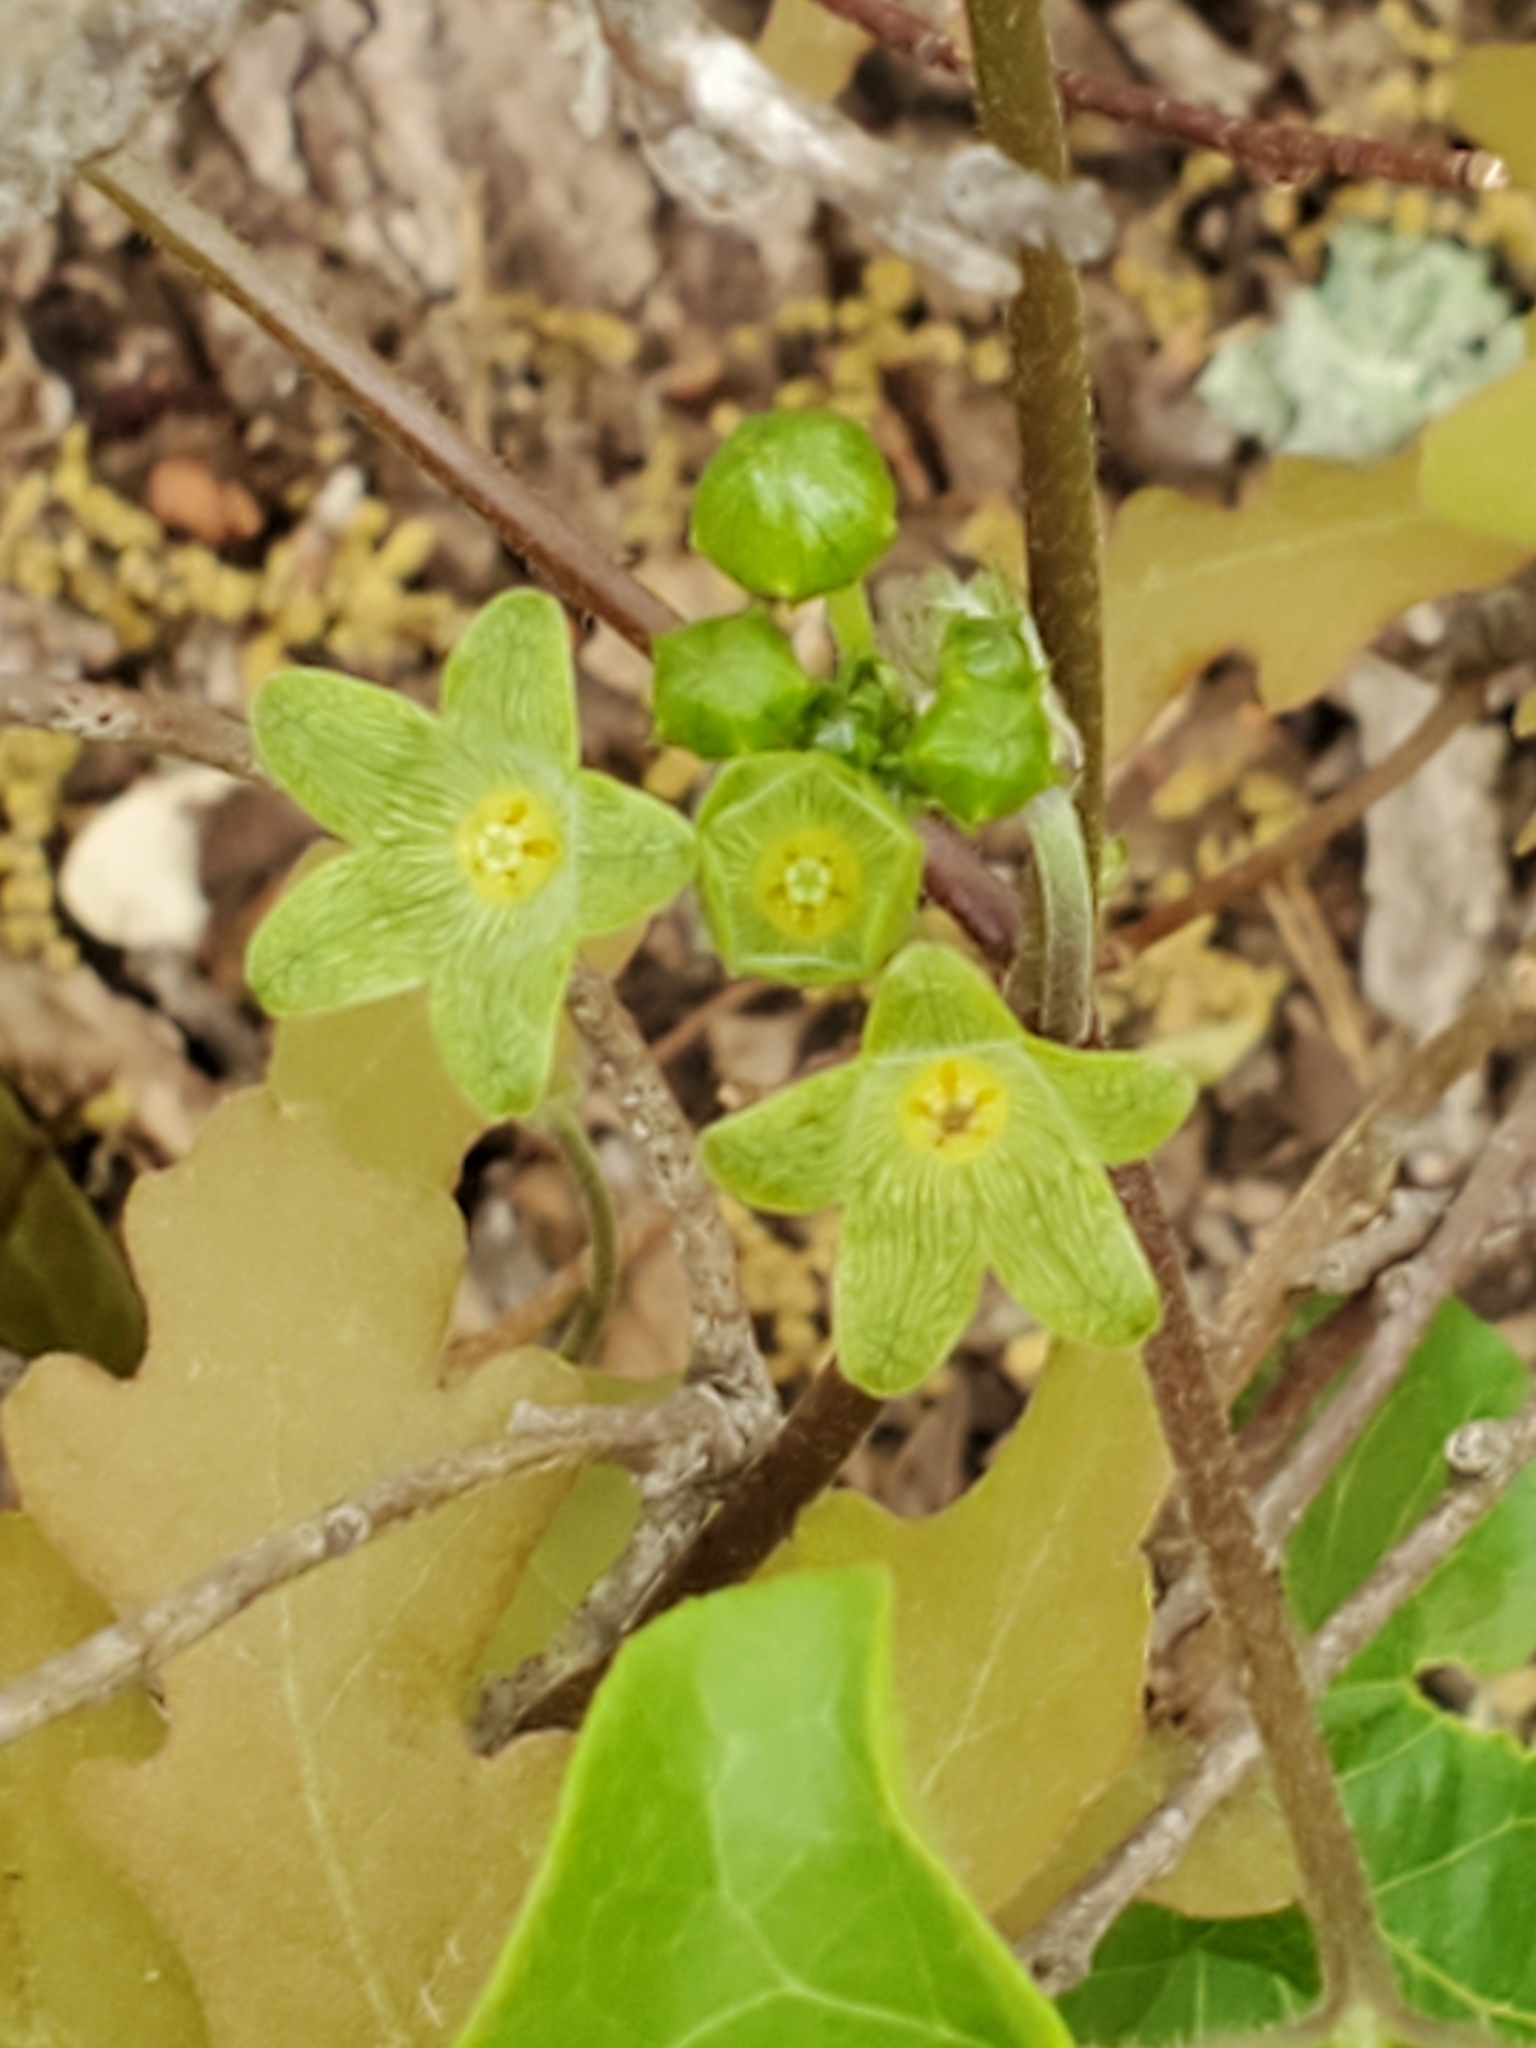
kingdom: Plantae
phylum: Tracheophyta
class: Magnoliopsida
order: Gentianales
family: Apocynaceae
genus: Matelea
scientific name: Matelea edwardsensis
